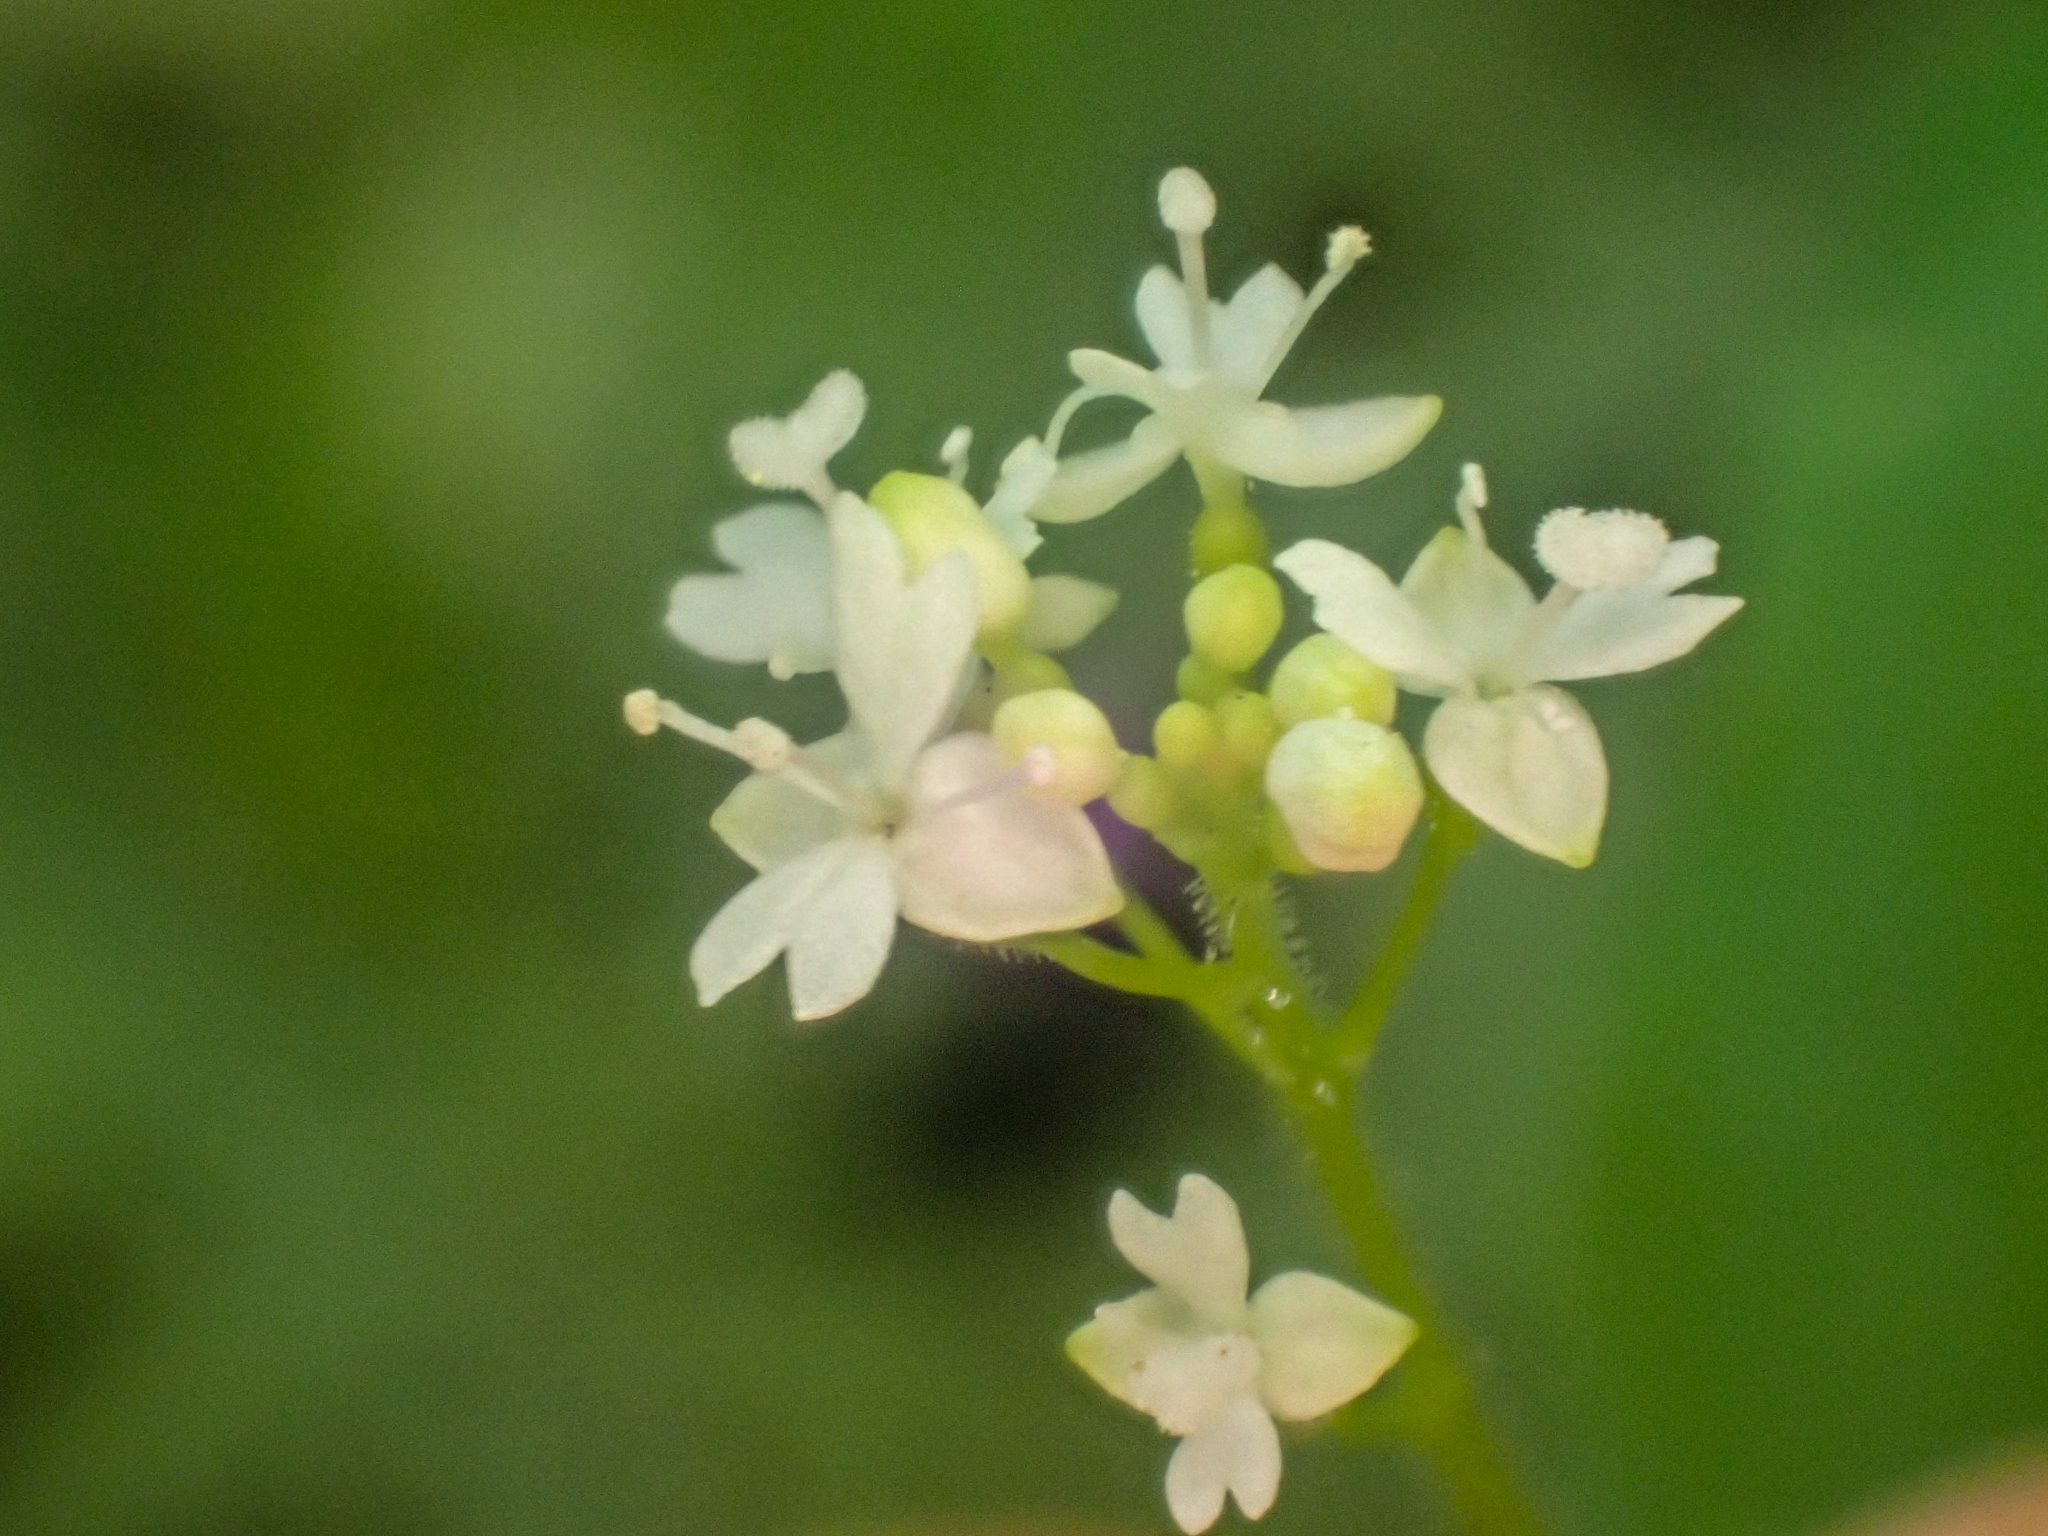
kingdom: Plantae
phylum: Tracheophyta
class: Magnoliopsida
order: Myrtales
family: Onagraceae
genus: Circaea
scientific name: Circaea alpina
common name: Alpine enchanter's-nightshade
